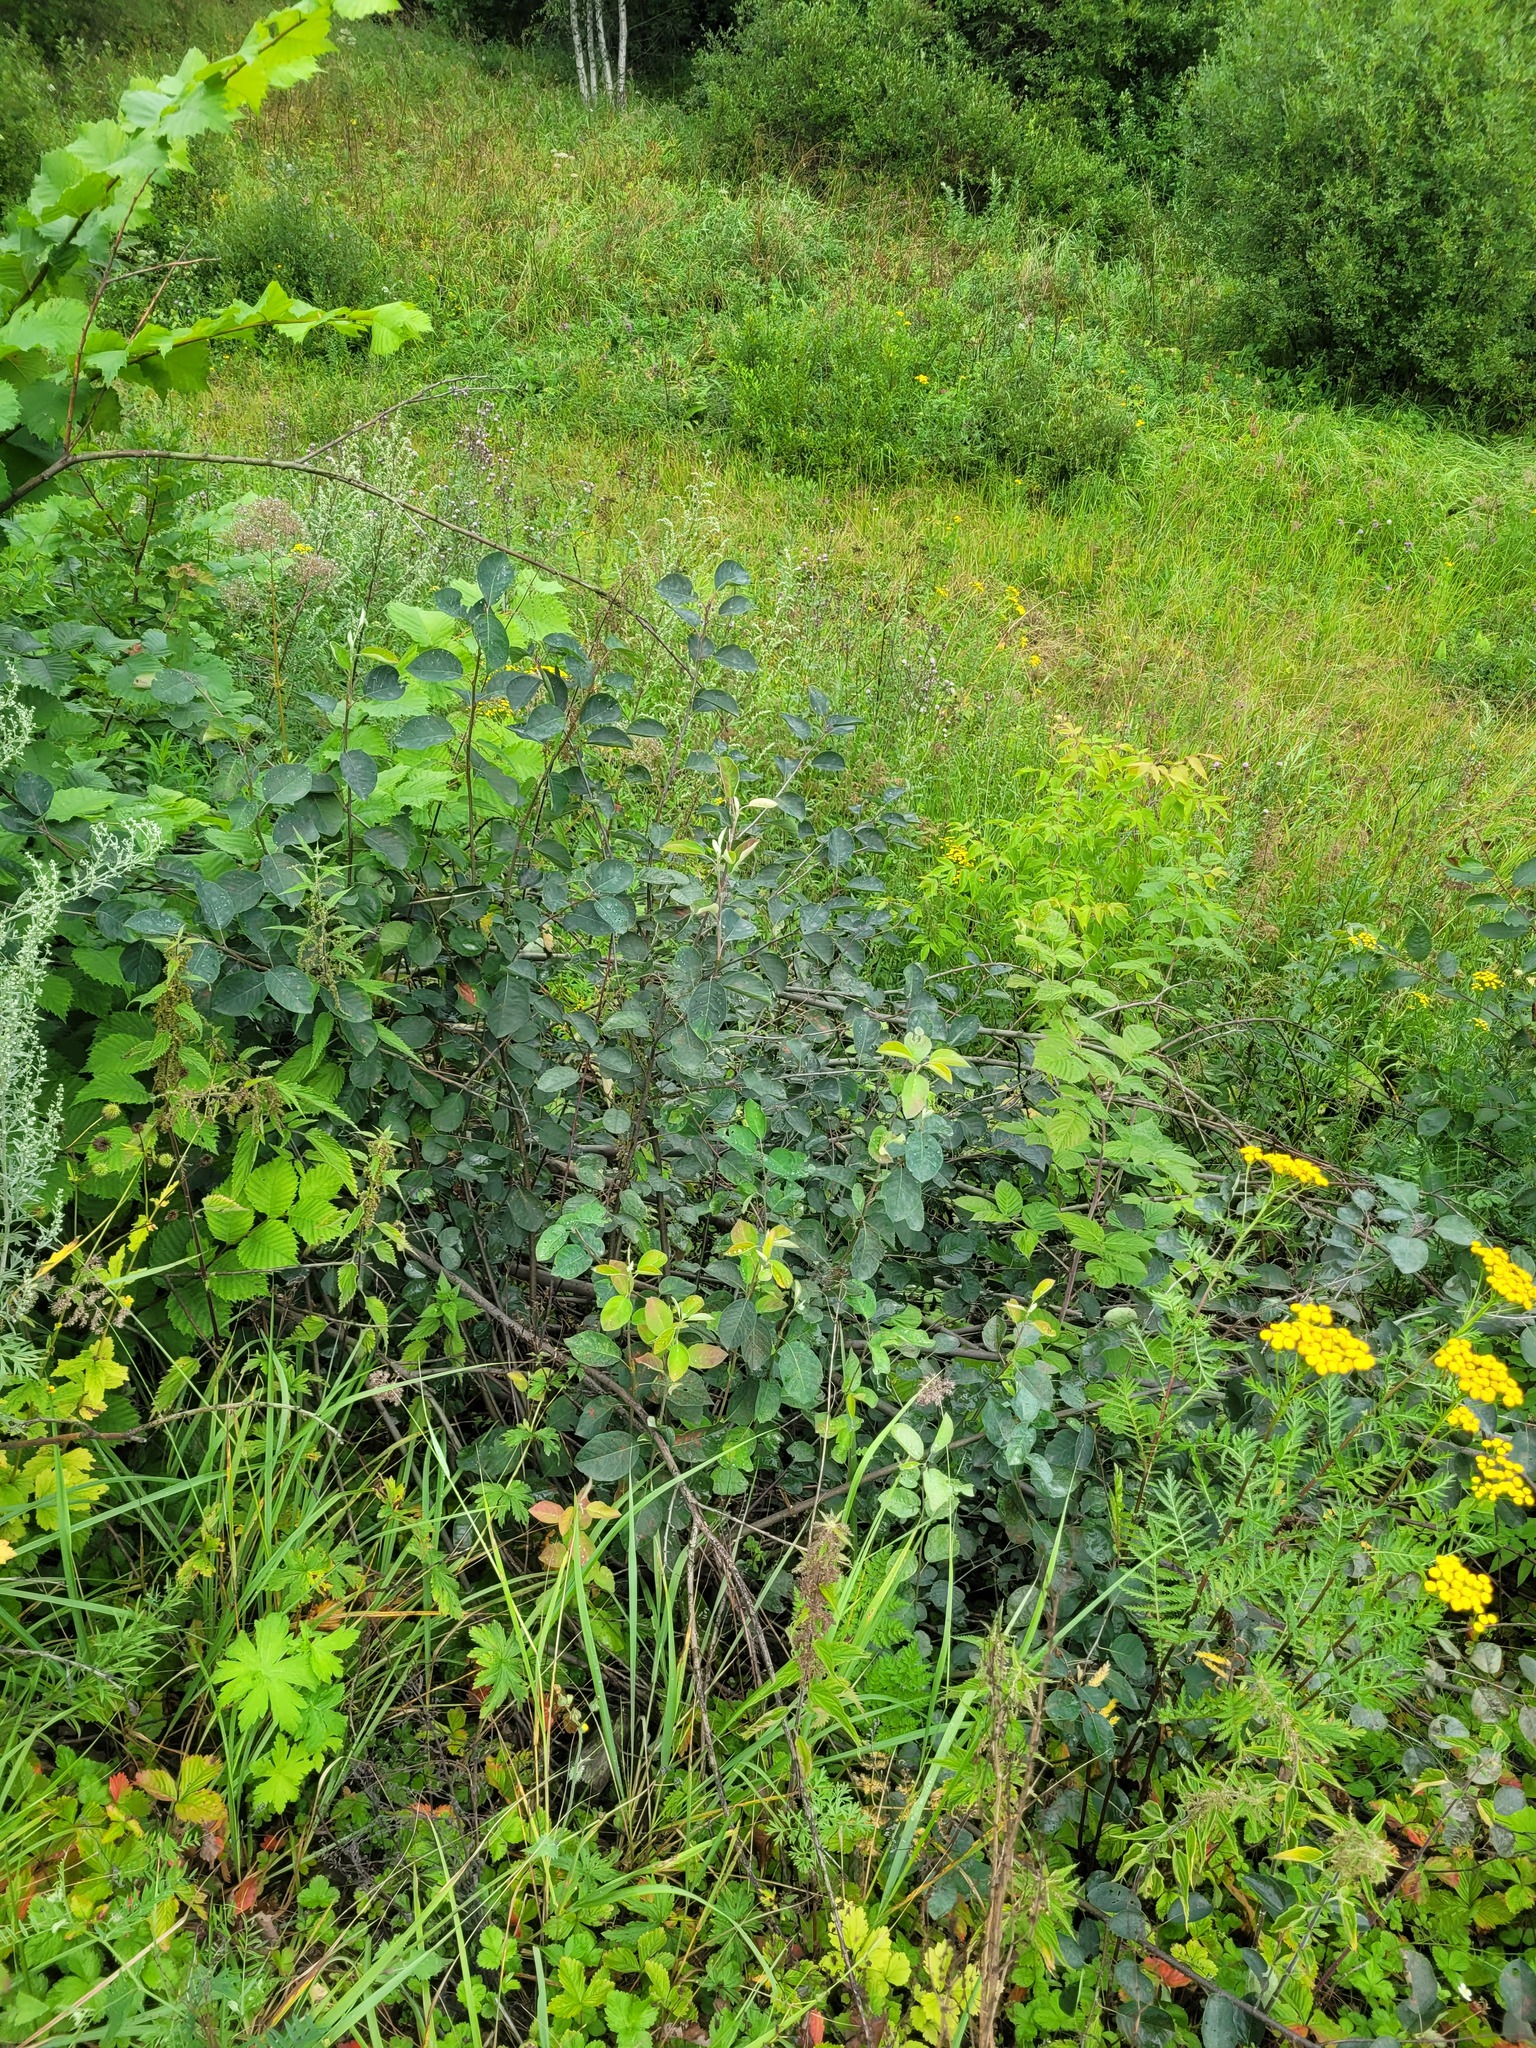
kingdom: Plantae
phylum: Tracheophyta
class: Magnoliopsida
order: Rosales
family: Rosaceae
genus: Amelanchier
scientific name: Amelanchier
